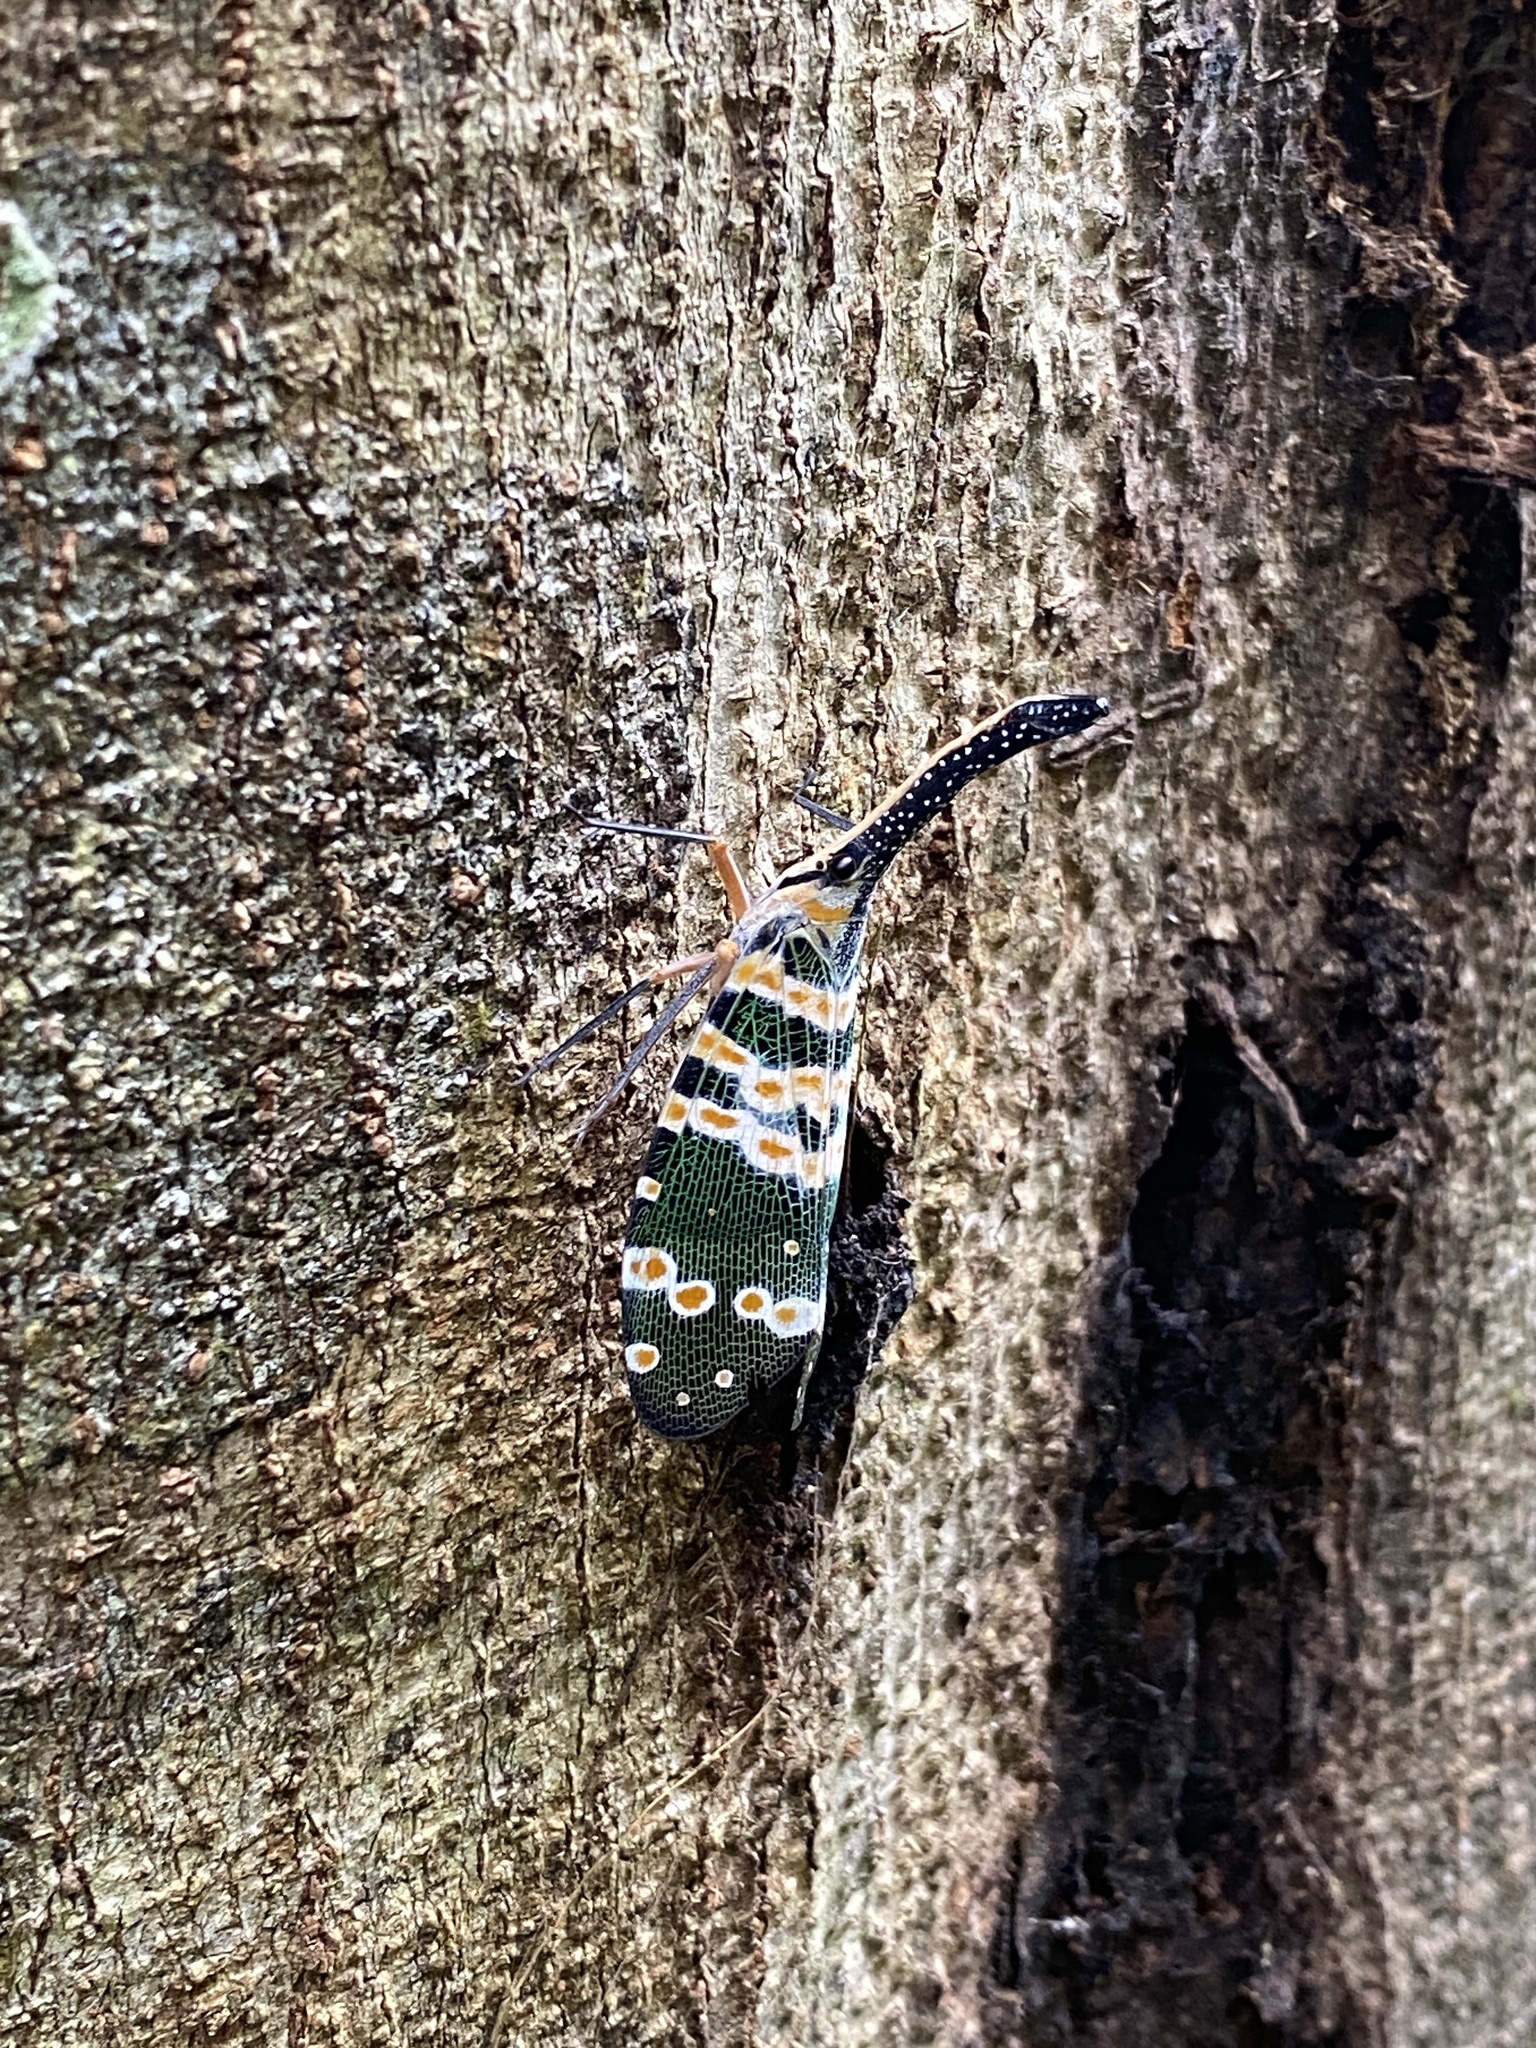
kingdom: Animalia
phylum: Arthropoda
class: Insecta
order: Hemiptera
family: Fulgoridae
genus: Pyrops
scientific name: Pyrops spinolae
